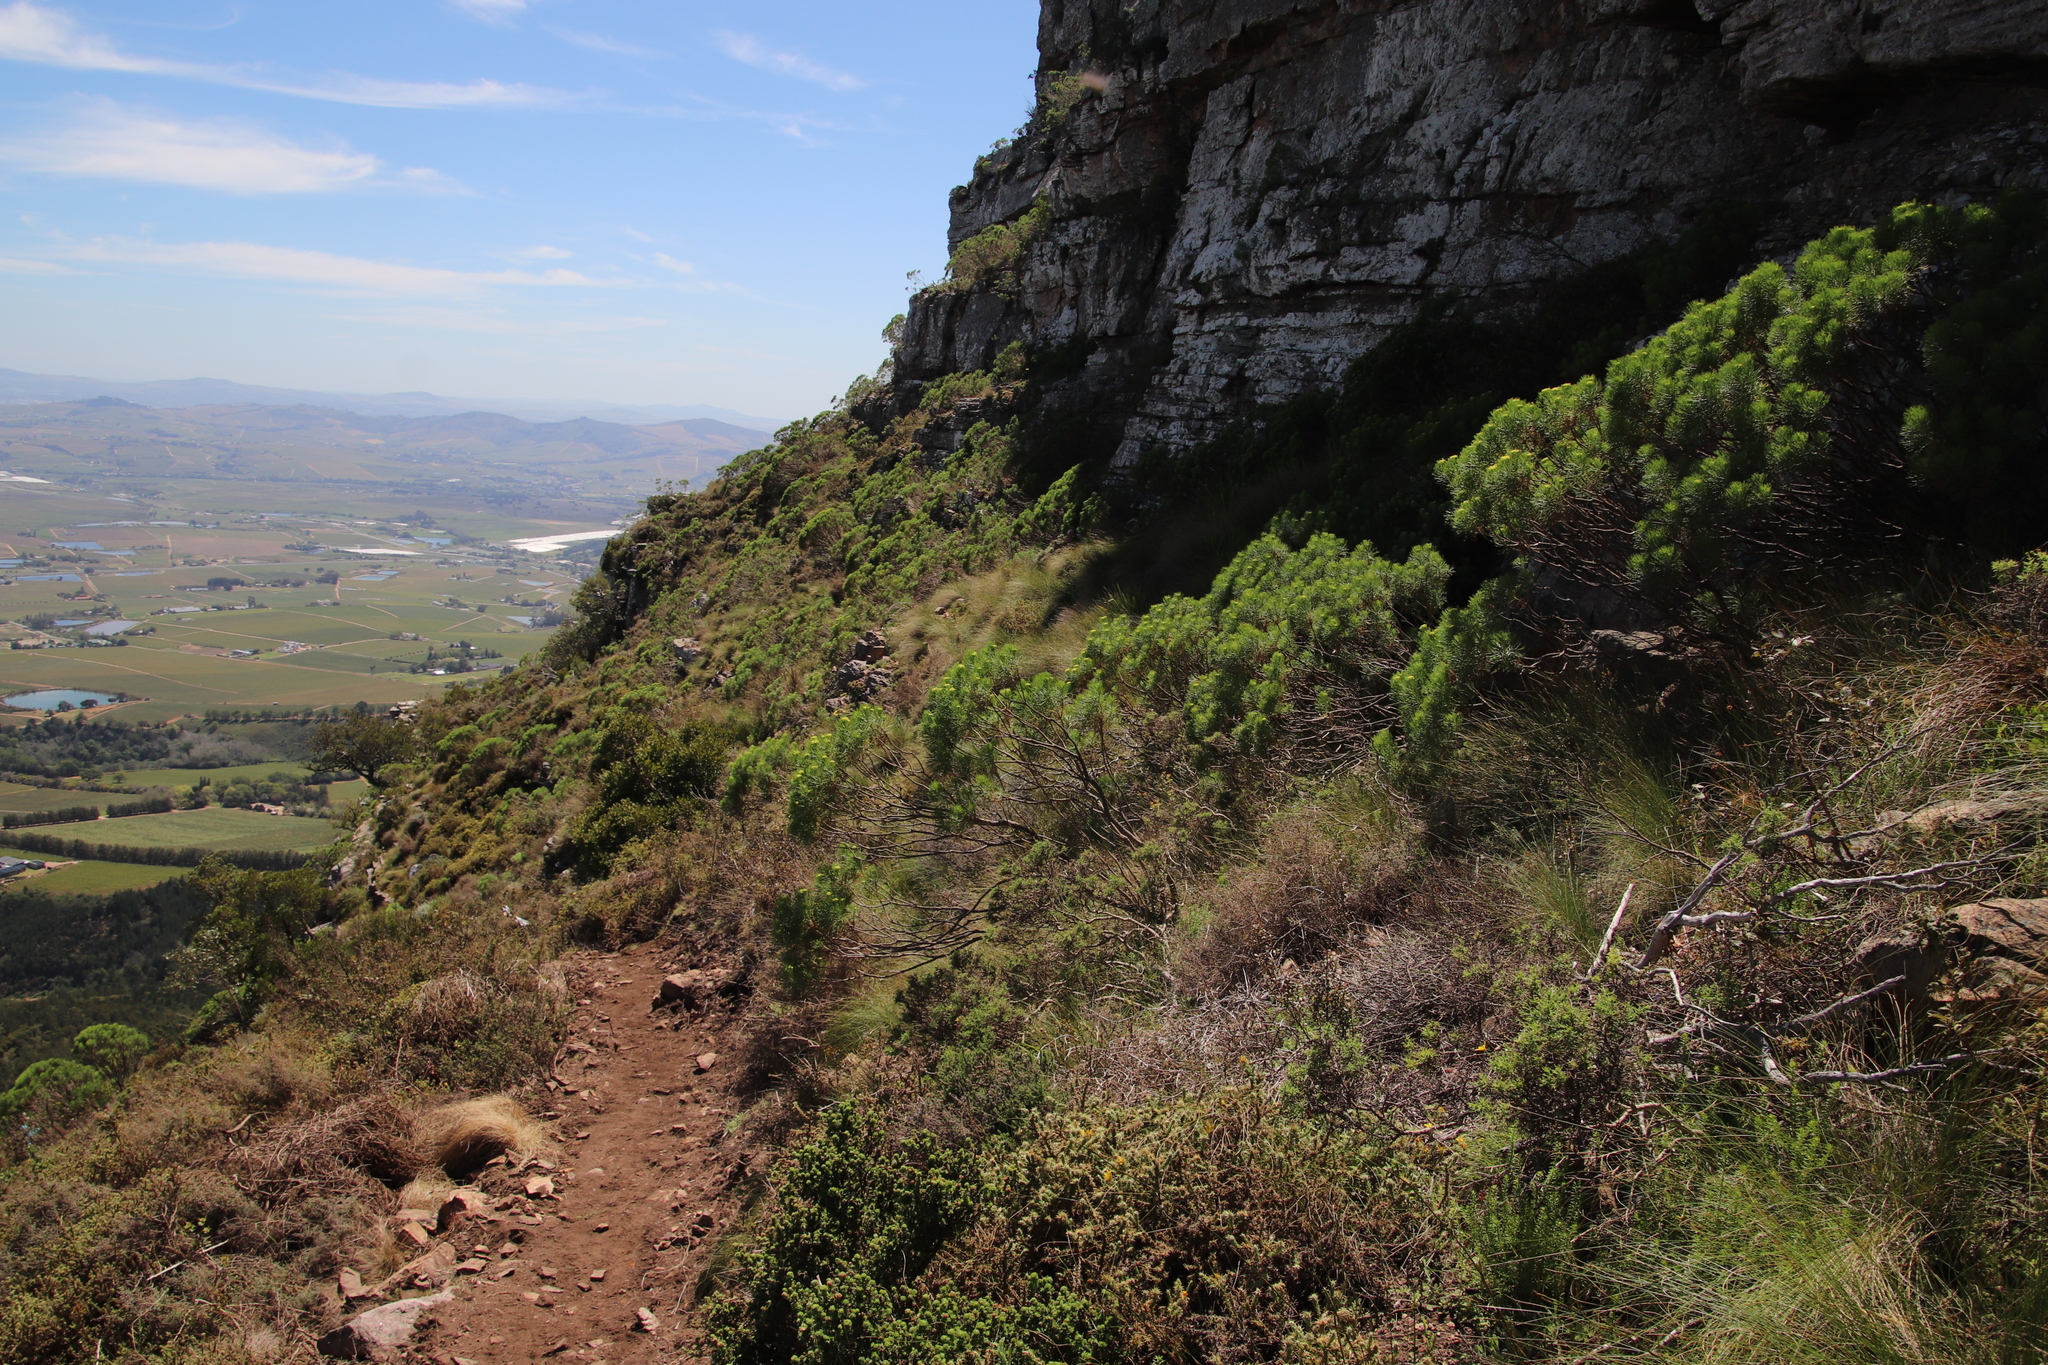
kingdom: Plantae
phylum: Tracheophyta
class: Magnoliopsida
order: Asterales
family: Asteraceae
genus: Hymenolepis
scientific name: Hymenolepis crithmifolia
